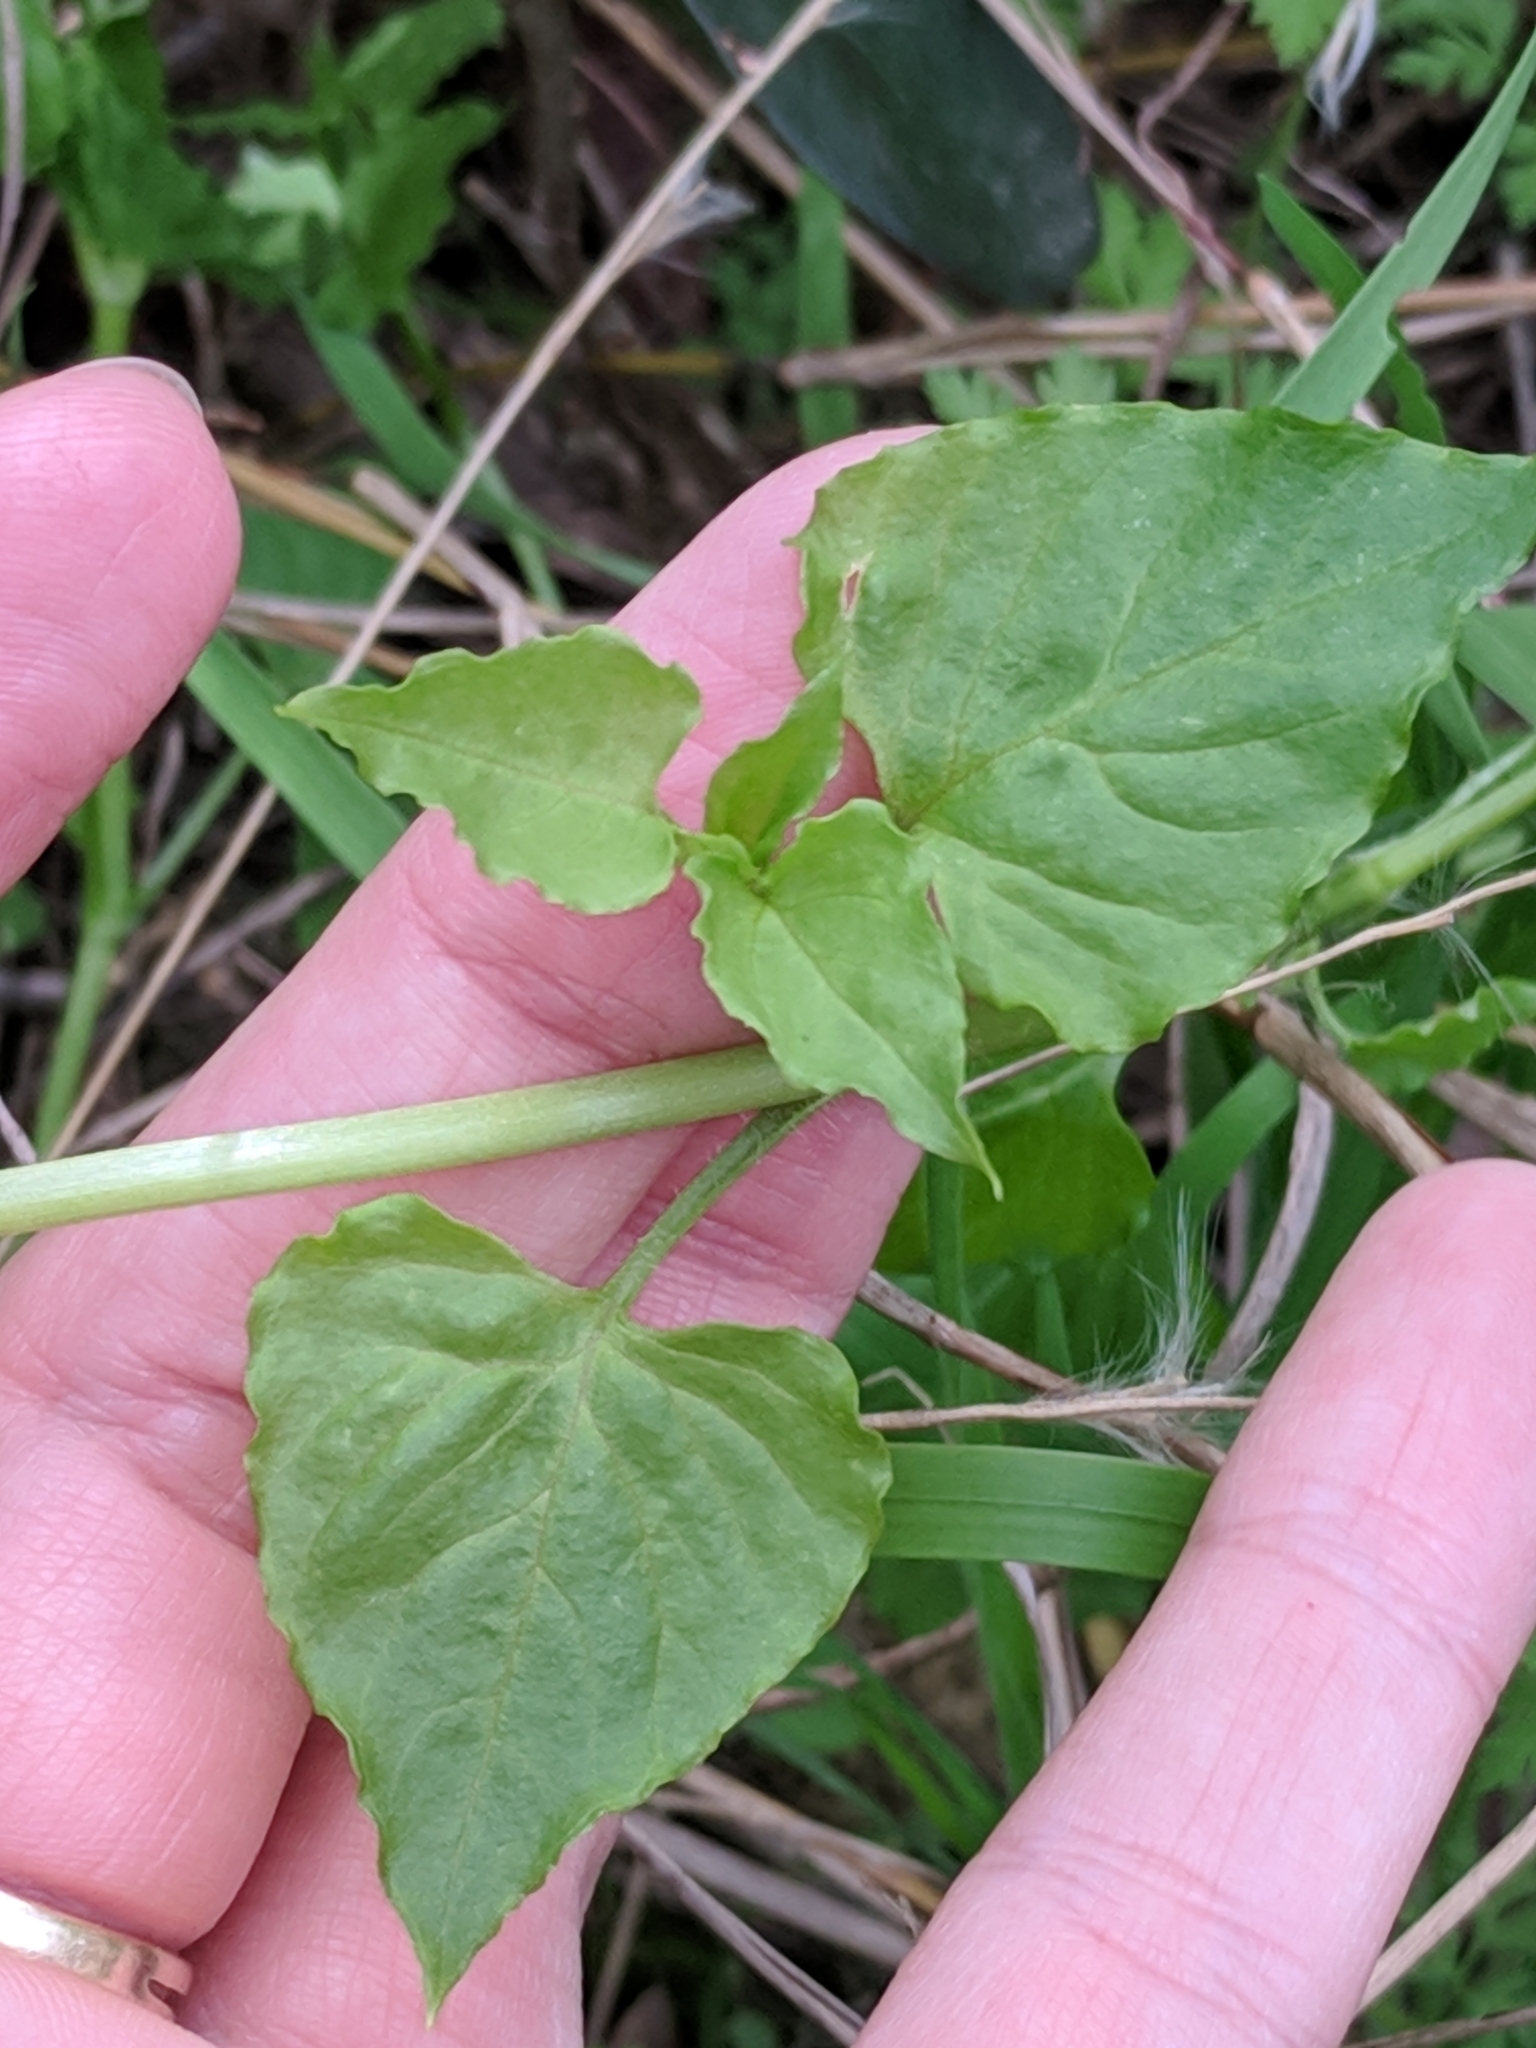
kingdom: Plantae
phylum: Tracheophyta
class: Magnoliopsida
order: Caryophyllales
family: Caryophyllaceae
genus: Stellaria
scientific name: Stellaria cuspidata
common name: Mexican chickweed
